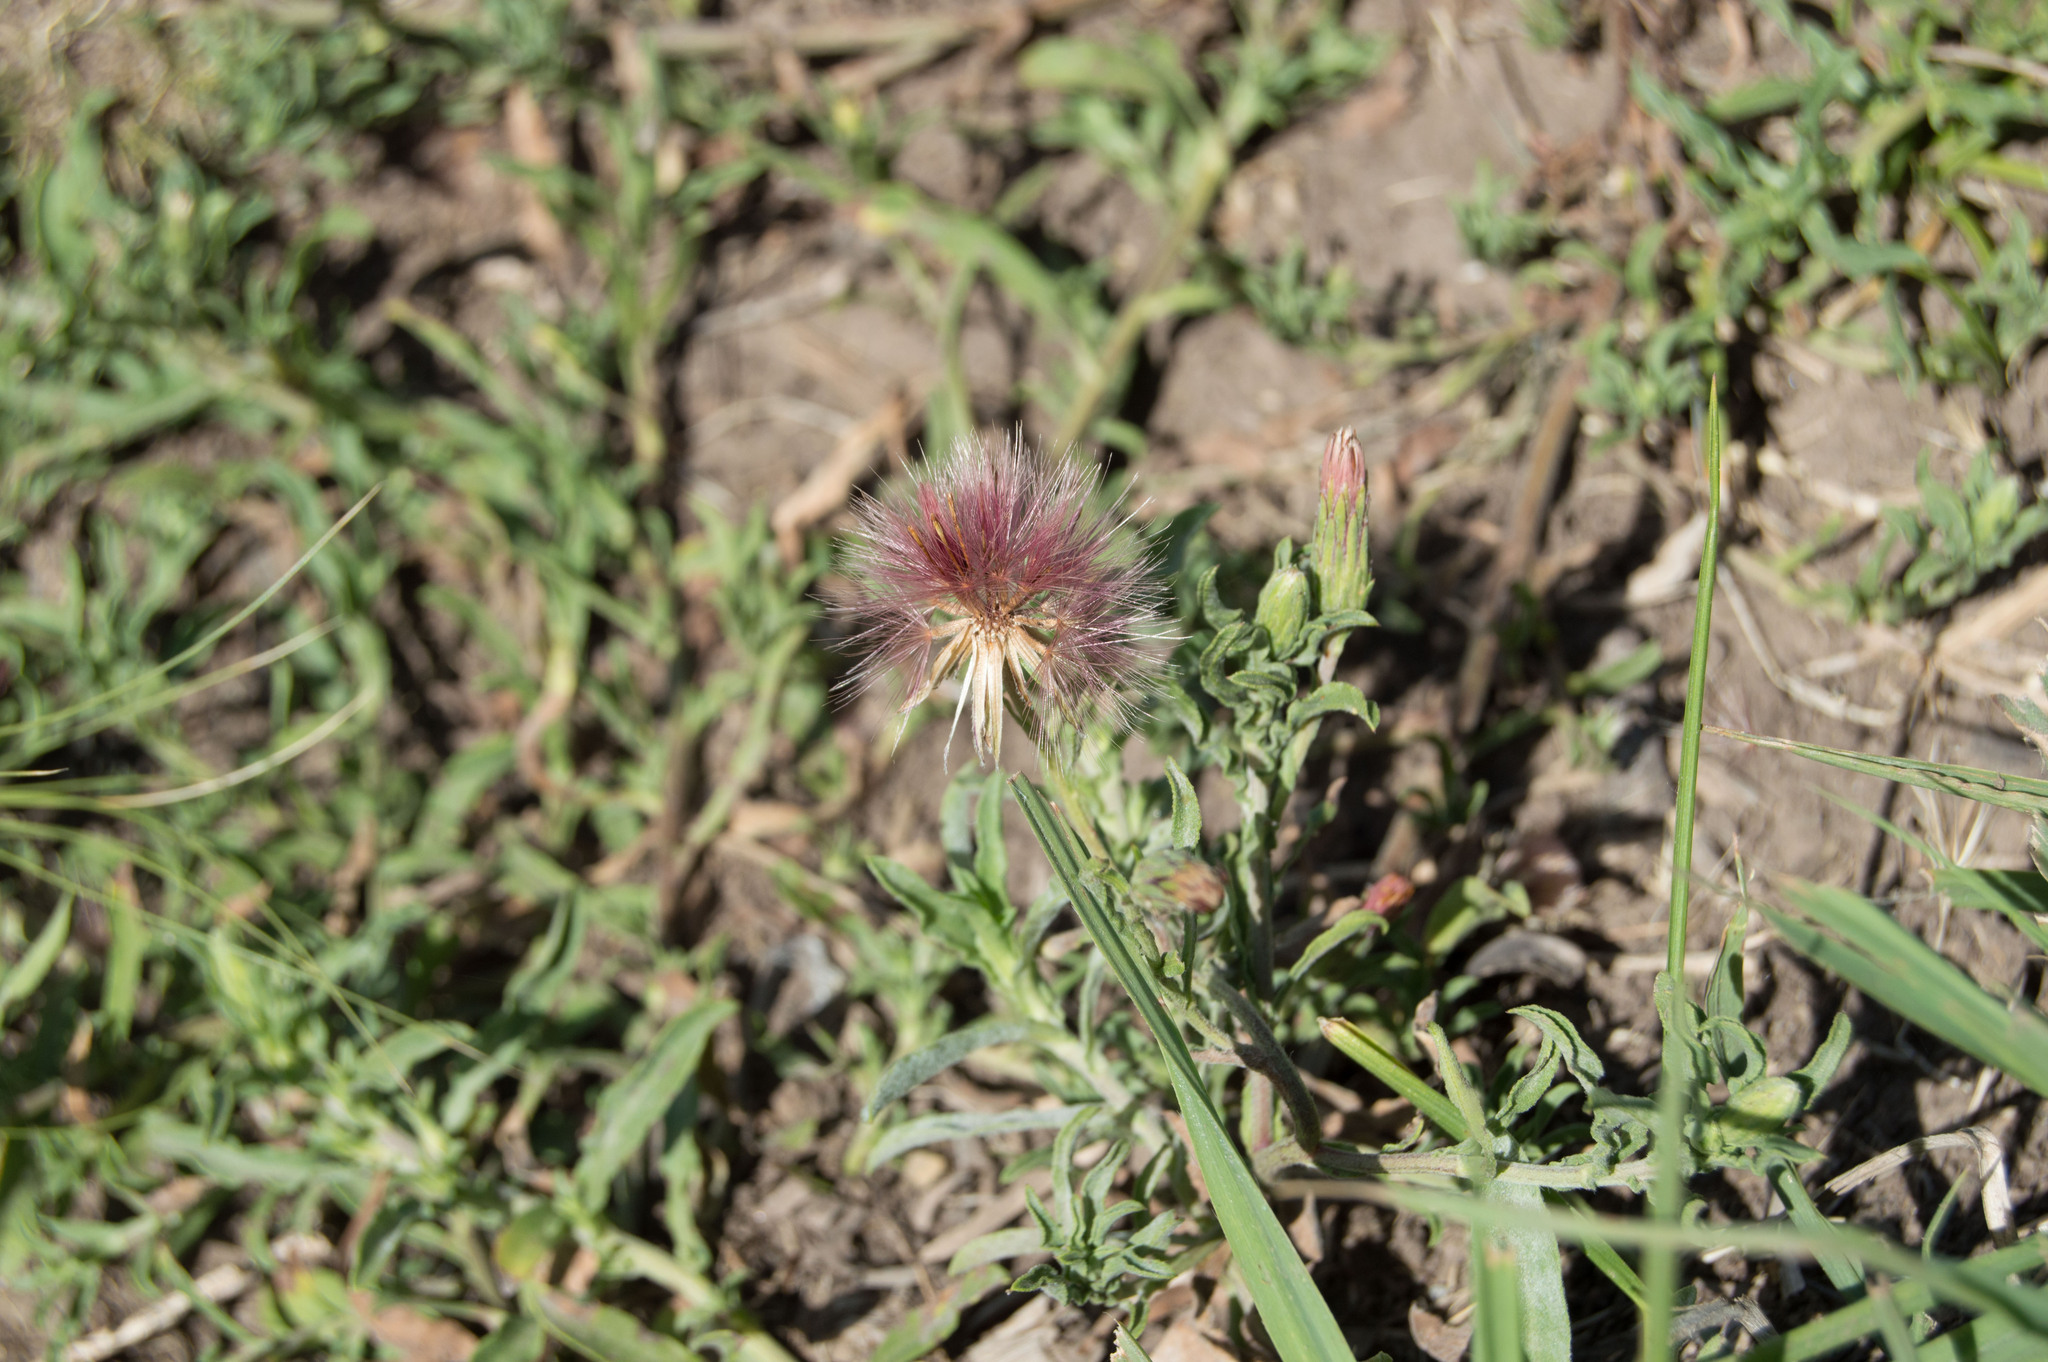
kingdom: Plantae
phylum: Tracheophyta
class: Magnoliopsida
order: Asterales
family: Asteraceae
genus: Noticastrum
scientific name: Noticastrum diffusum
